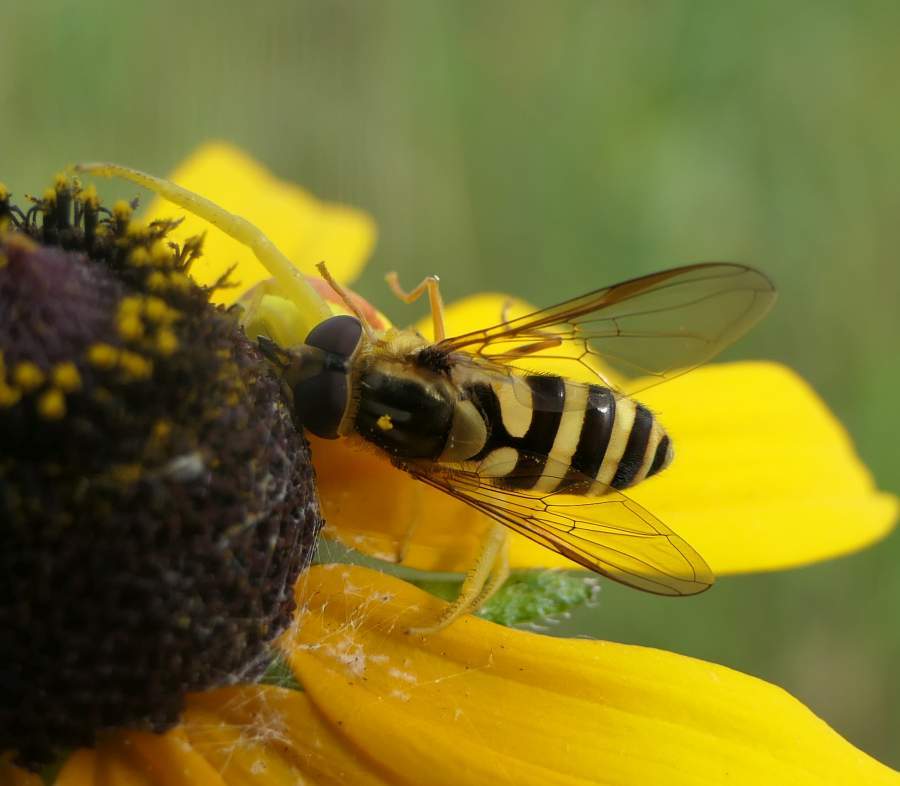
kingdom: Animalia
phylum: Arthropoda
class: Insecta
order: Diptera
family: Syrphidae
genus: Syrphus
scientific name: Syrphus knabi
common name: Eastern flower fly
